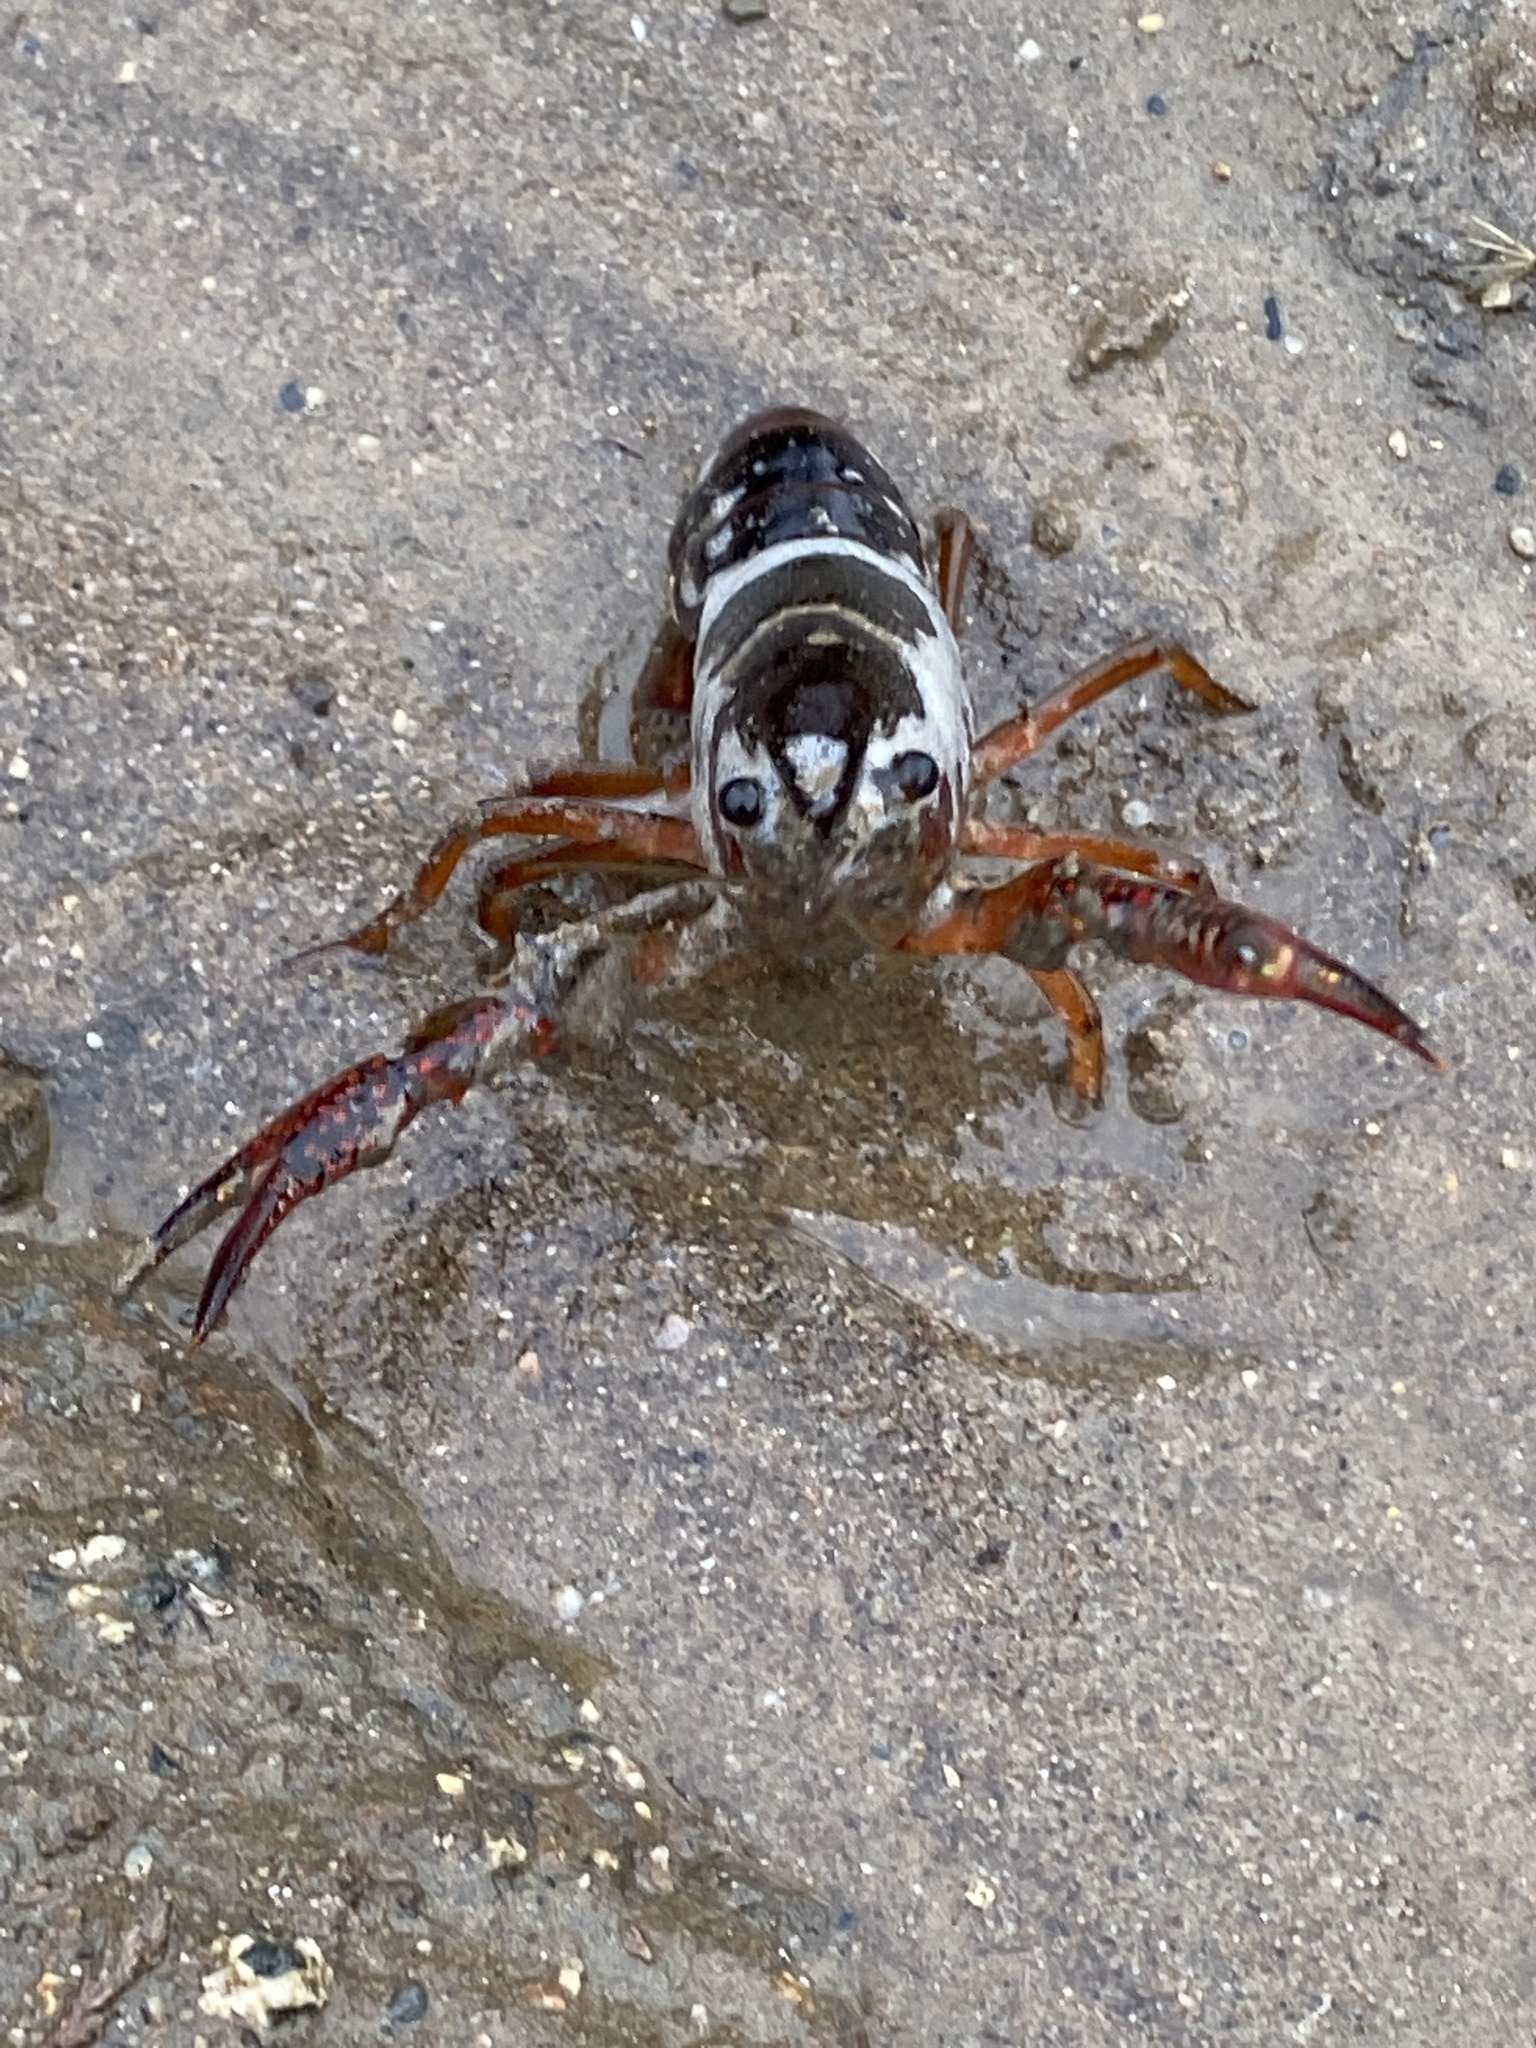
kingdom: Animalia
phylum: Arthropoda
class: Malacostraca
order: Decapoda
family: Cambaridae
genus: Procambarus
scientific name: Procambarus clarkii
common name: Red swamp crayfish
